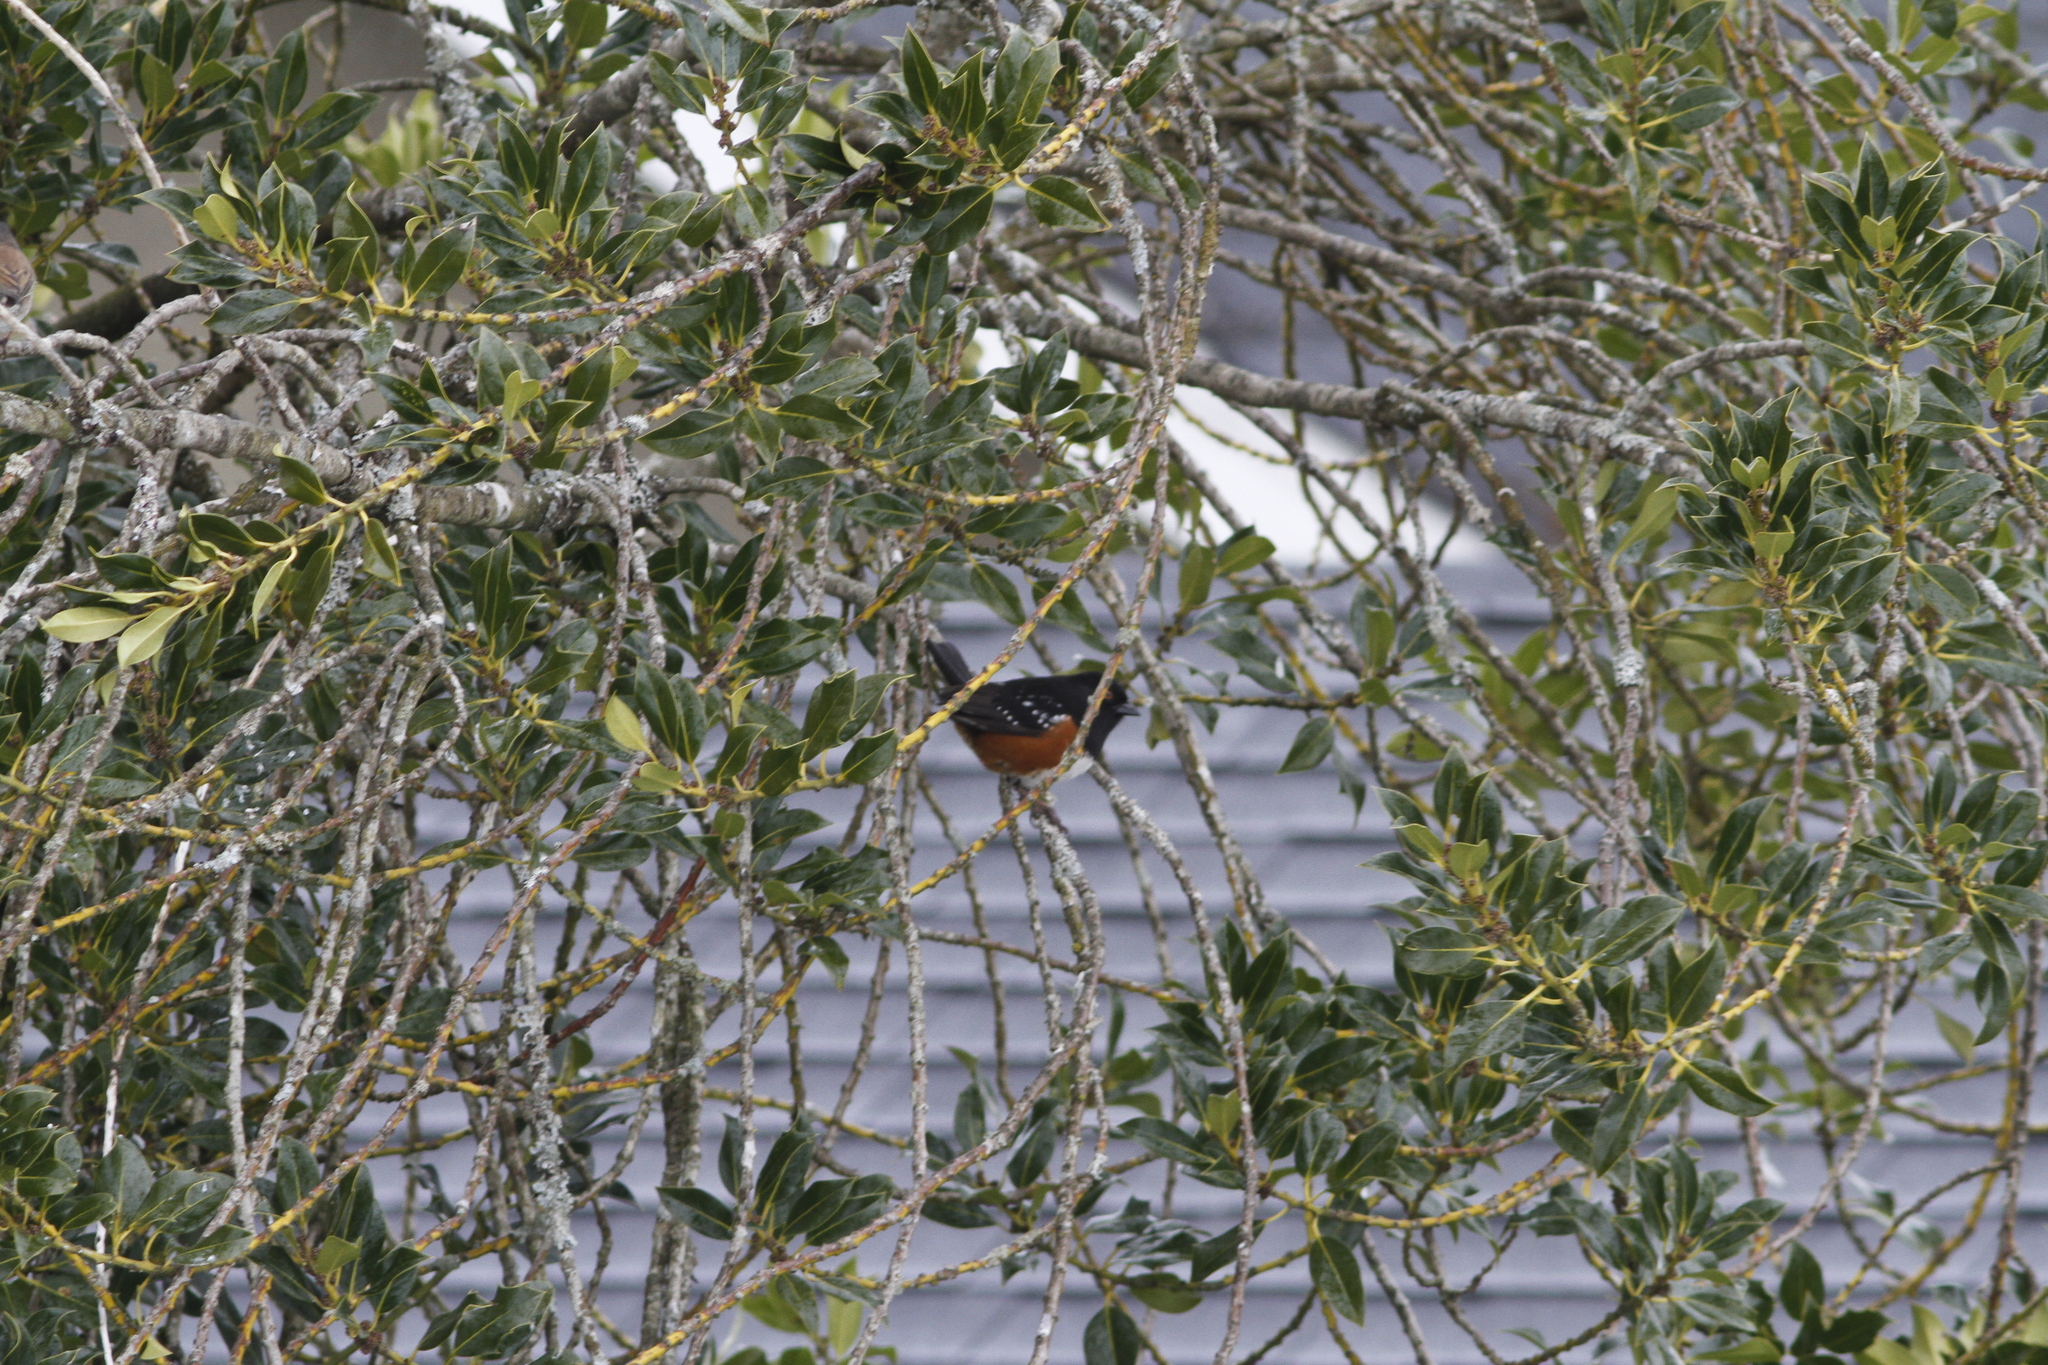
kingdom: Animalia
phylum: Chordata
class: Aves
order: Passeriformes
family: Passerellidae
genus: Pipilo
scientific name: Pipilo maculatus
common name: Spotted towhee
